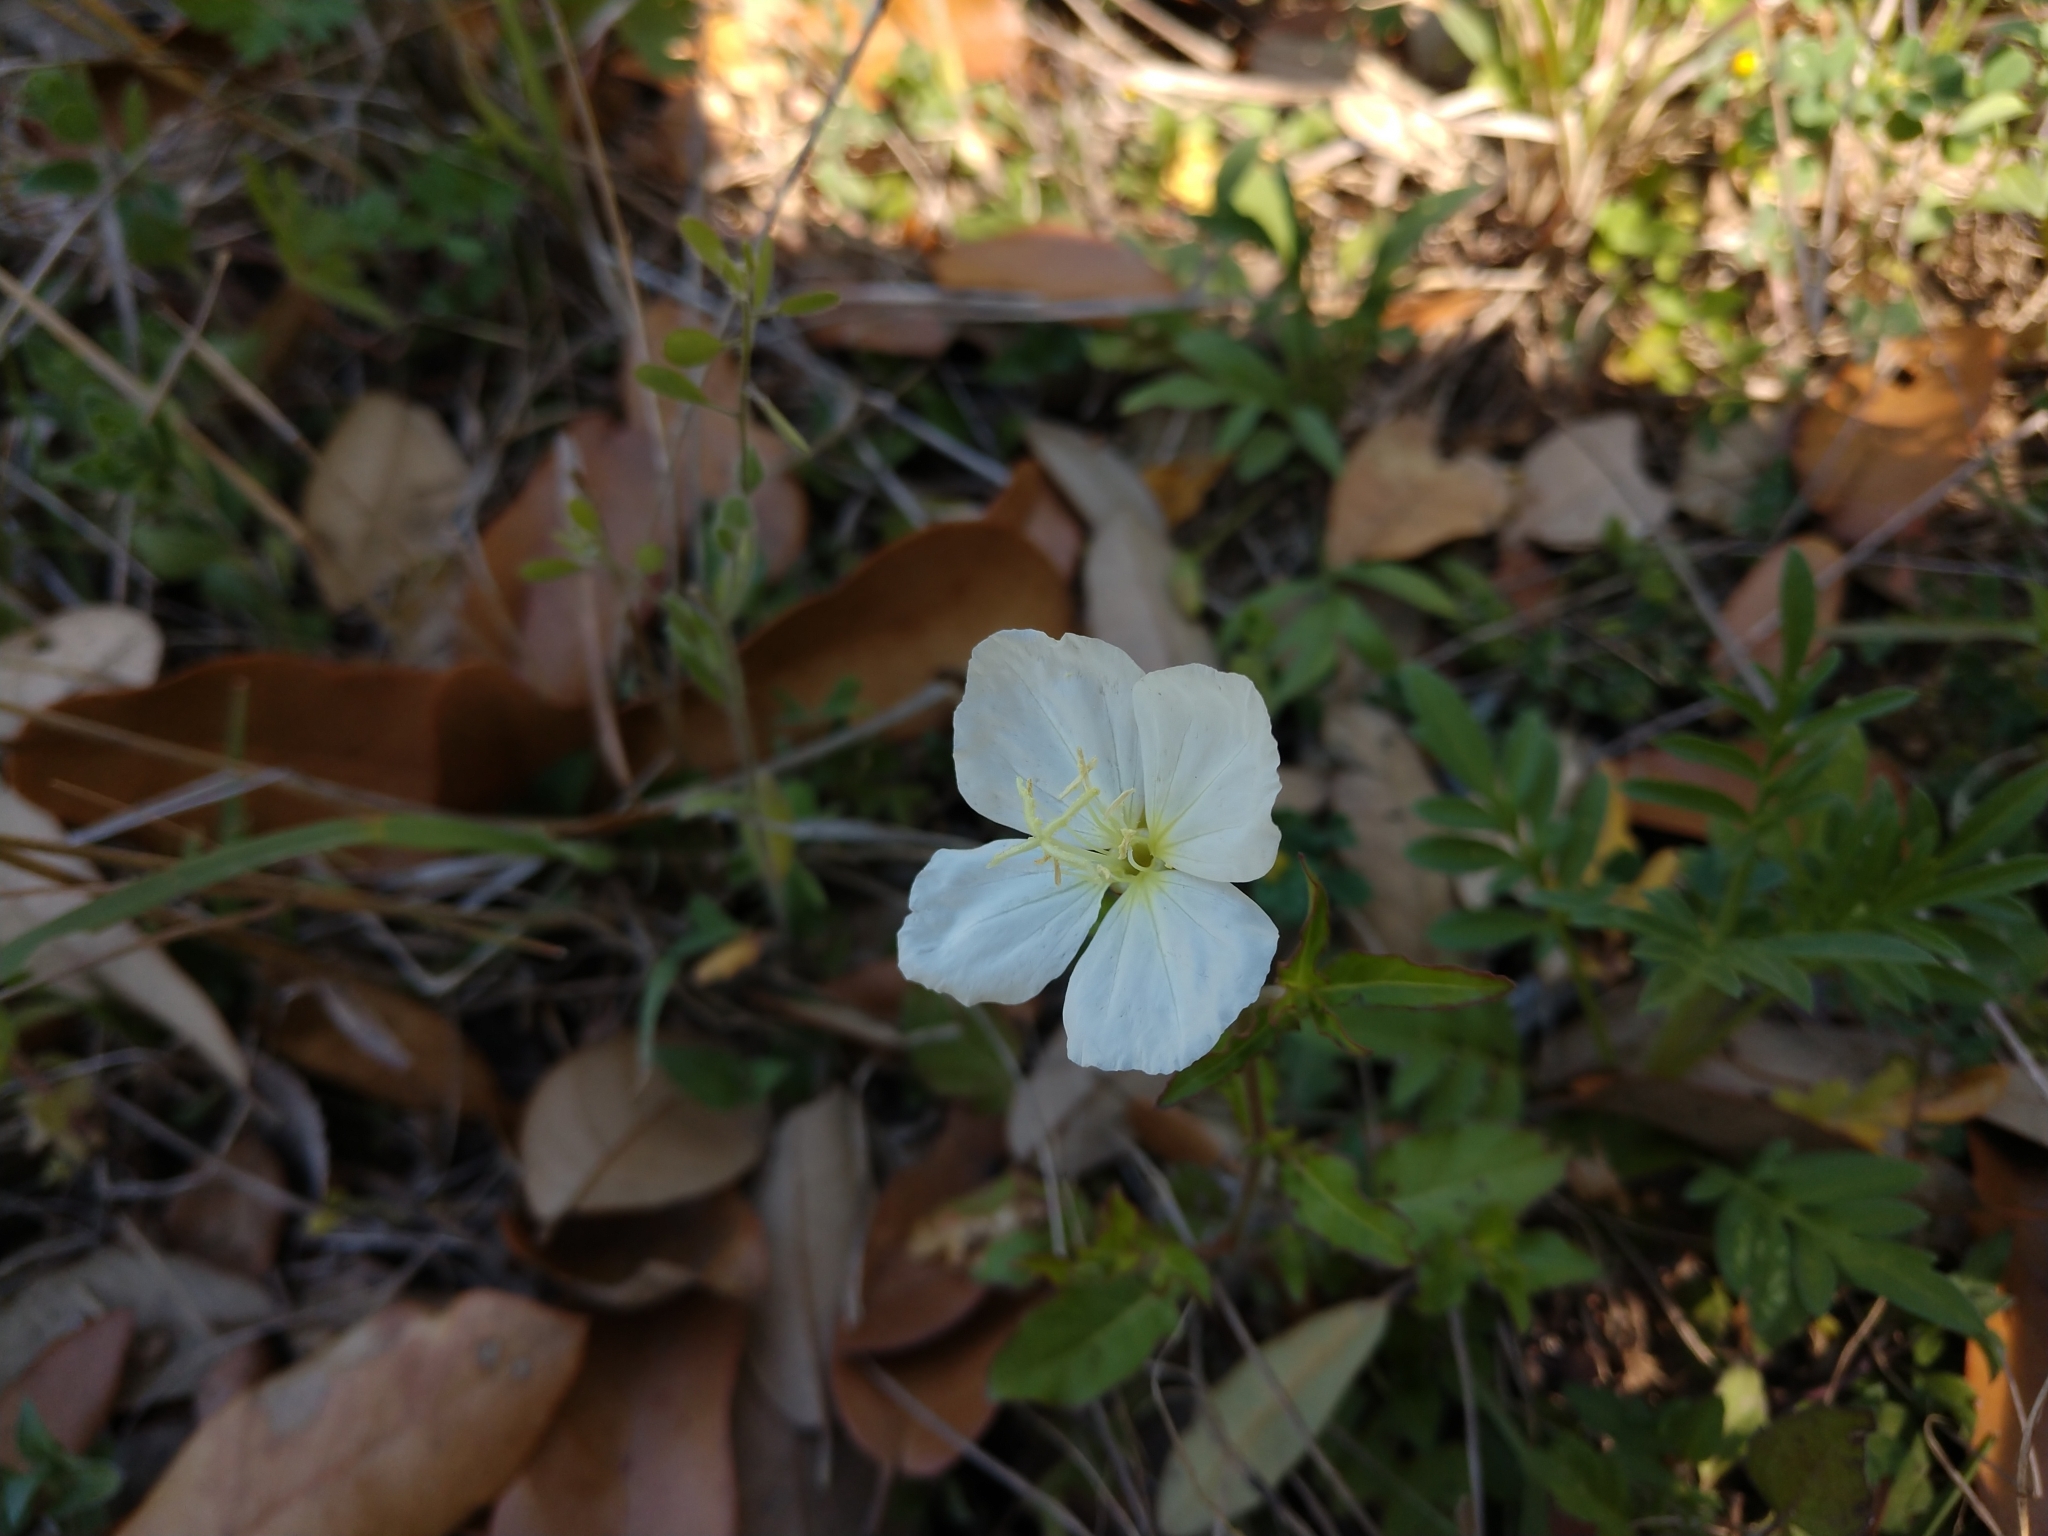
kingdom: Plantae
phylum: Tracheophyta
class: Magnoliopsida
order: Myrtales
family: Onagraceae
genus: Oenothera
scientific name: Oenothera tetraptera
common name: Four-wing evening-primrose
